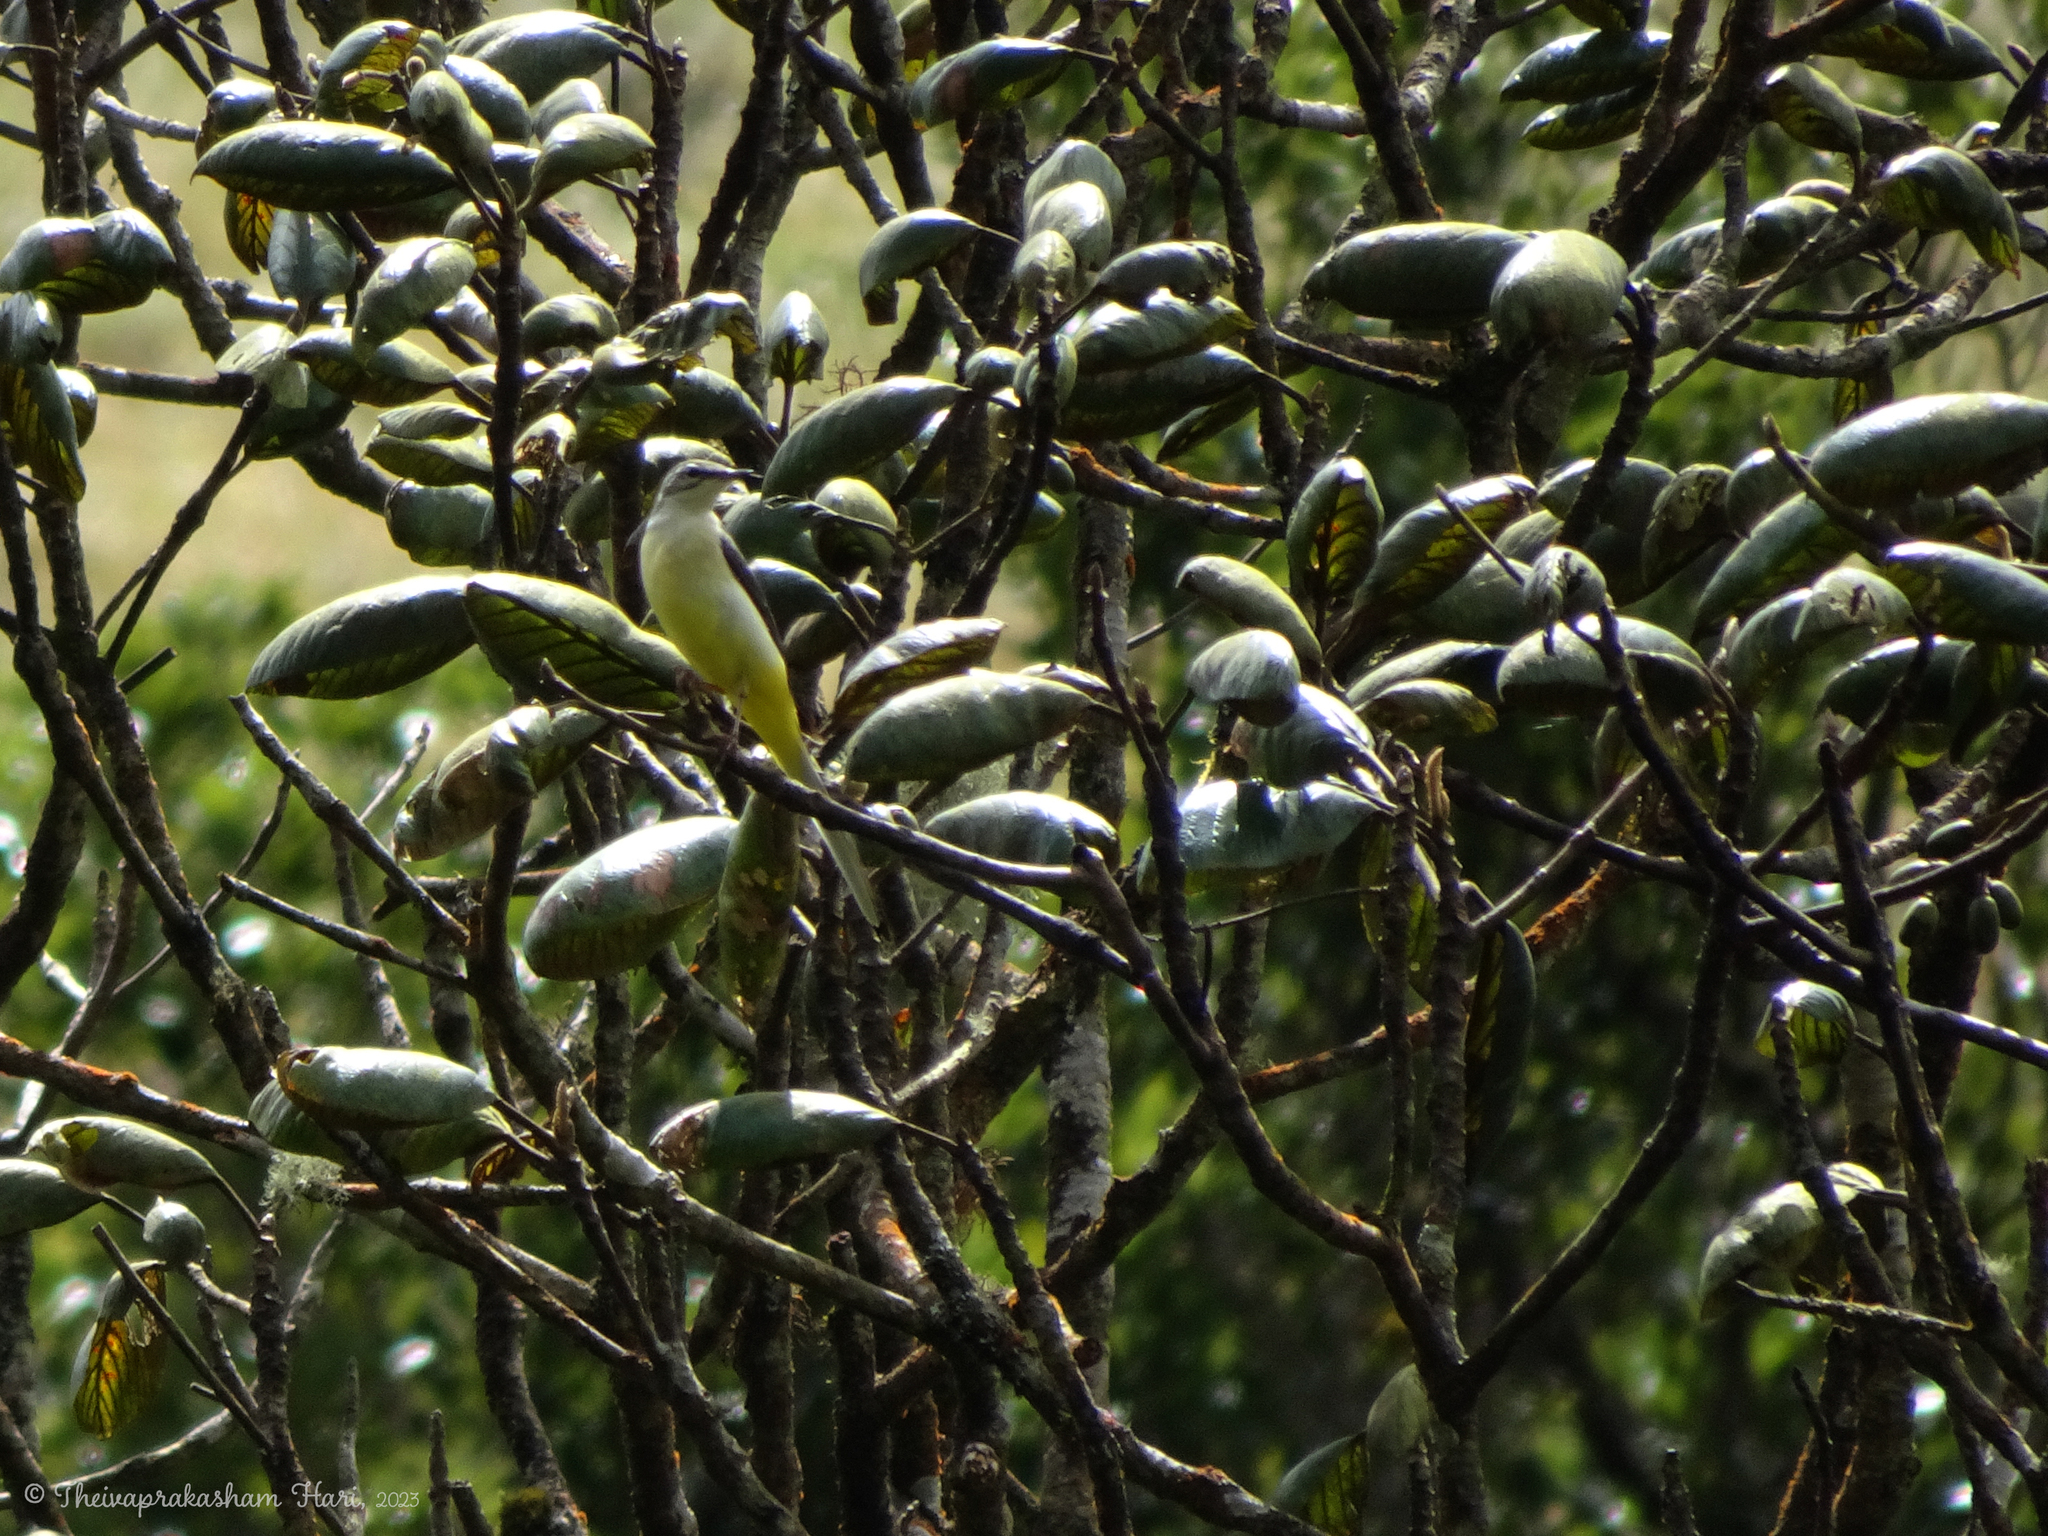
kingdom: Animalia
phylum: Chordata
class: Aves
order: Passeriformes
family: Motacillidae
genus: Motacilla
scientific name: Motacilla flava
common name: Western yellow wagtail
